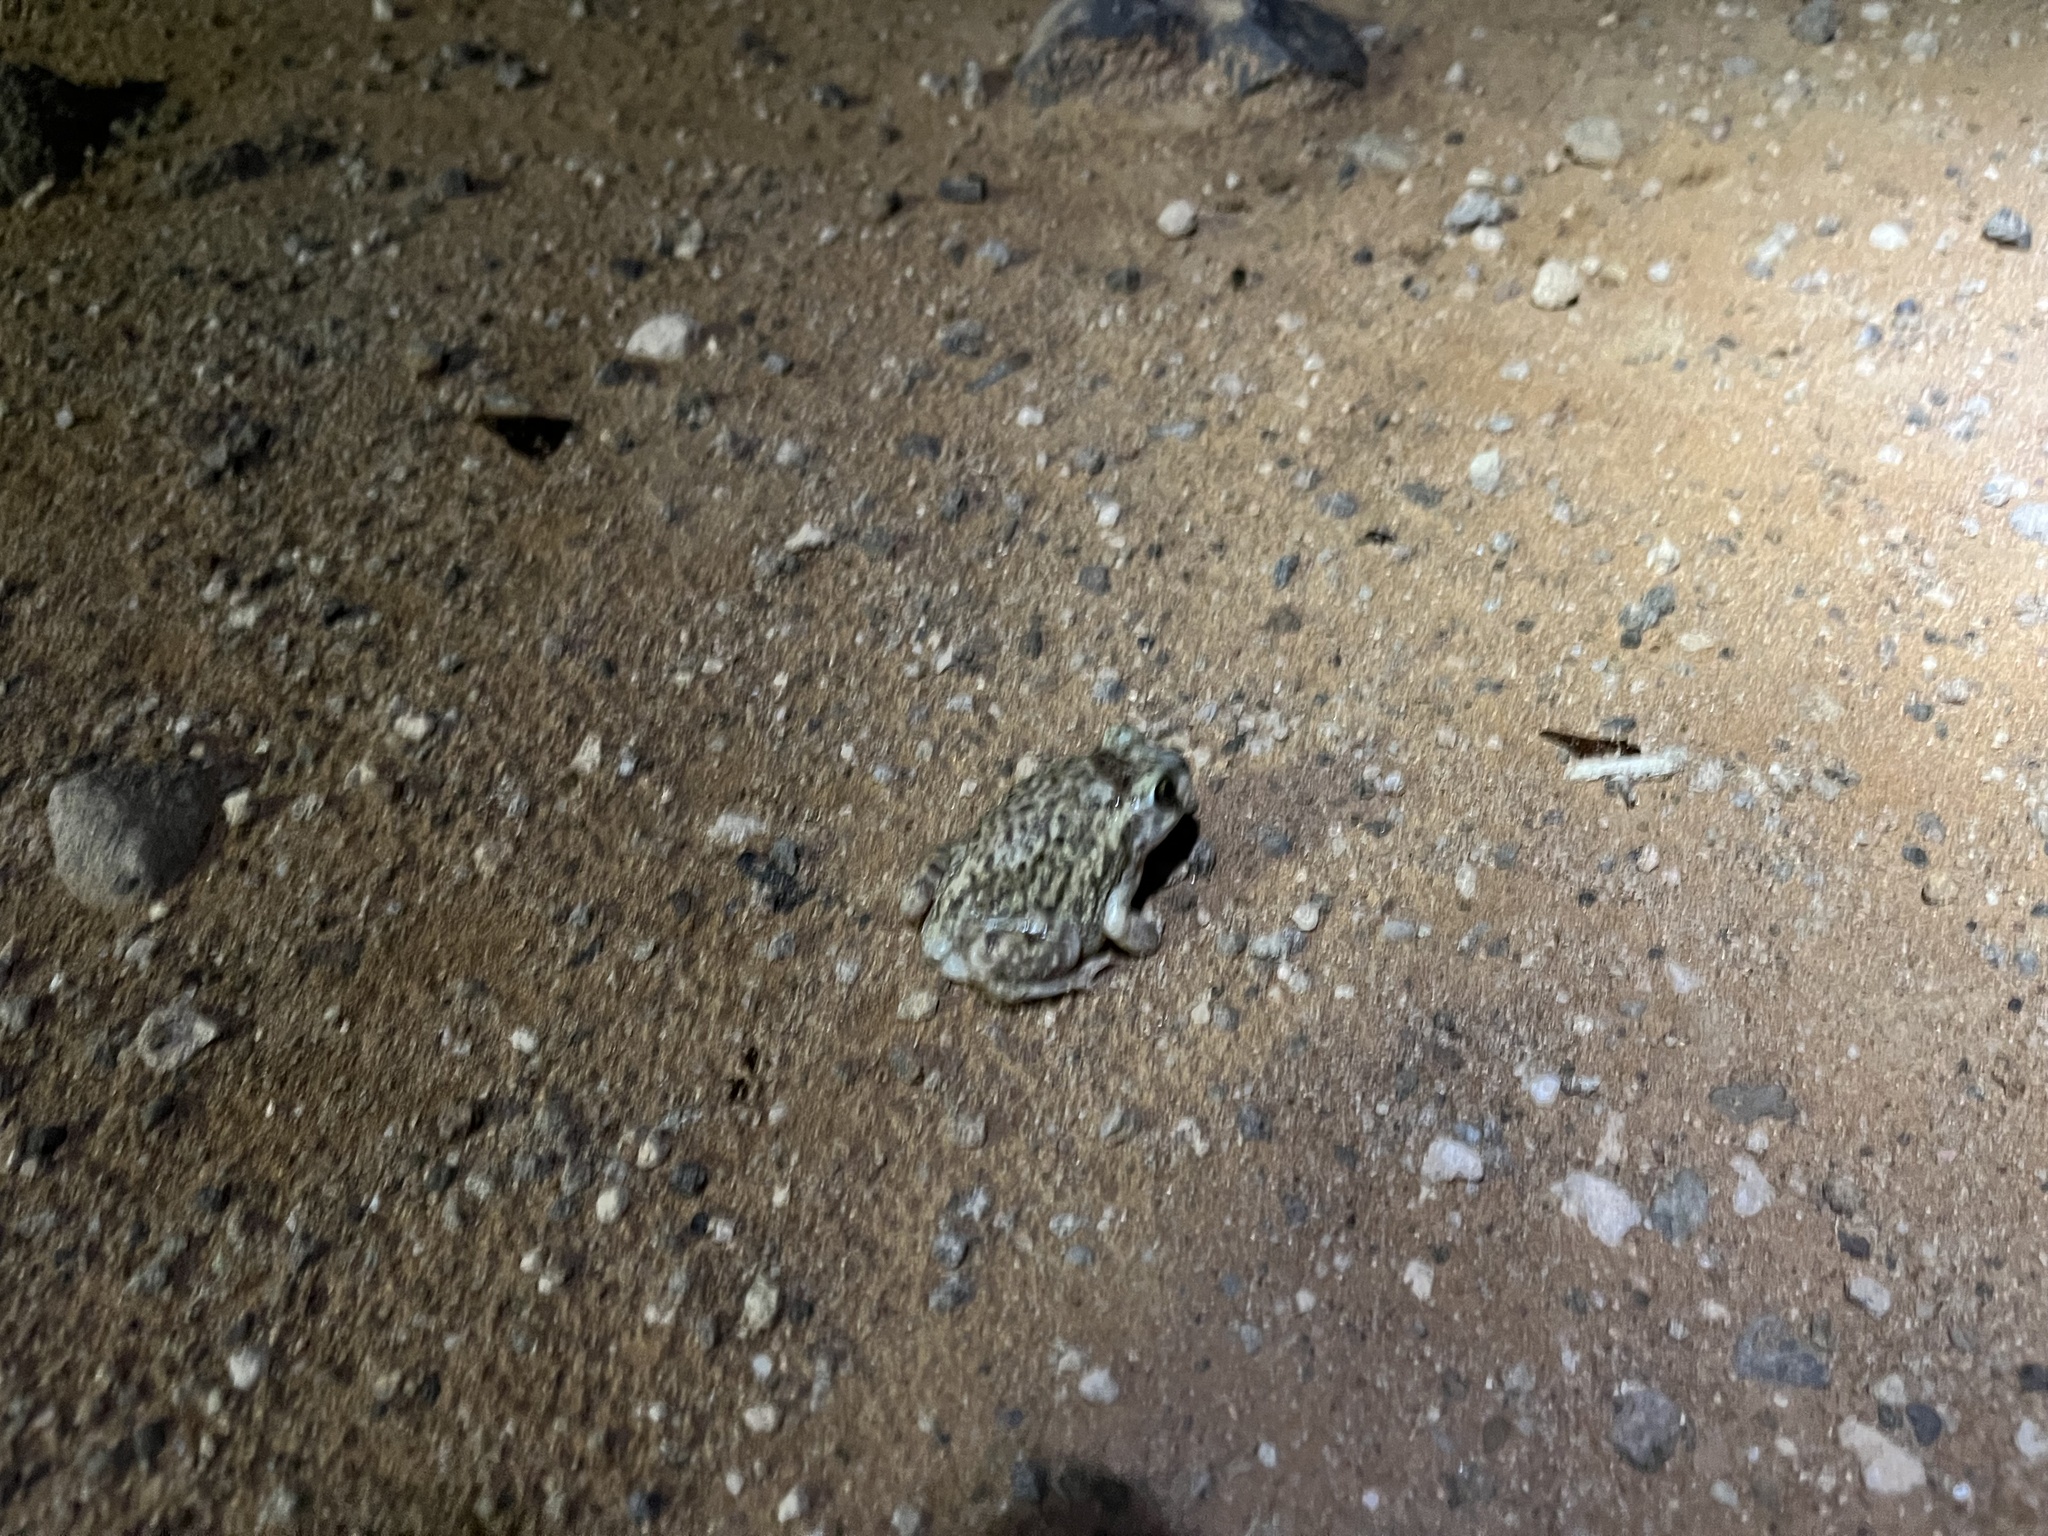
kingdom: Animalia
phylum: Chordata
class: Amphibia
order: Anura
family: Scaphiopodidae
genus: Scaphiopus
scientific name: Scaphiopus couchii
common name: Couch's spadefoot toad
